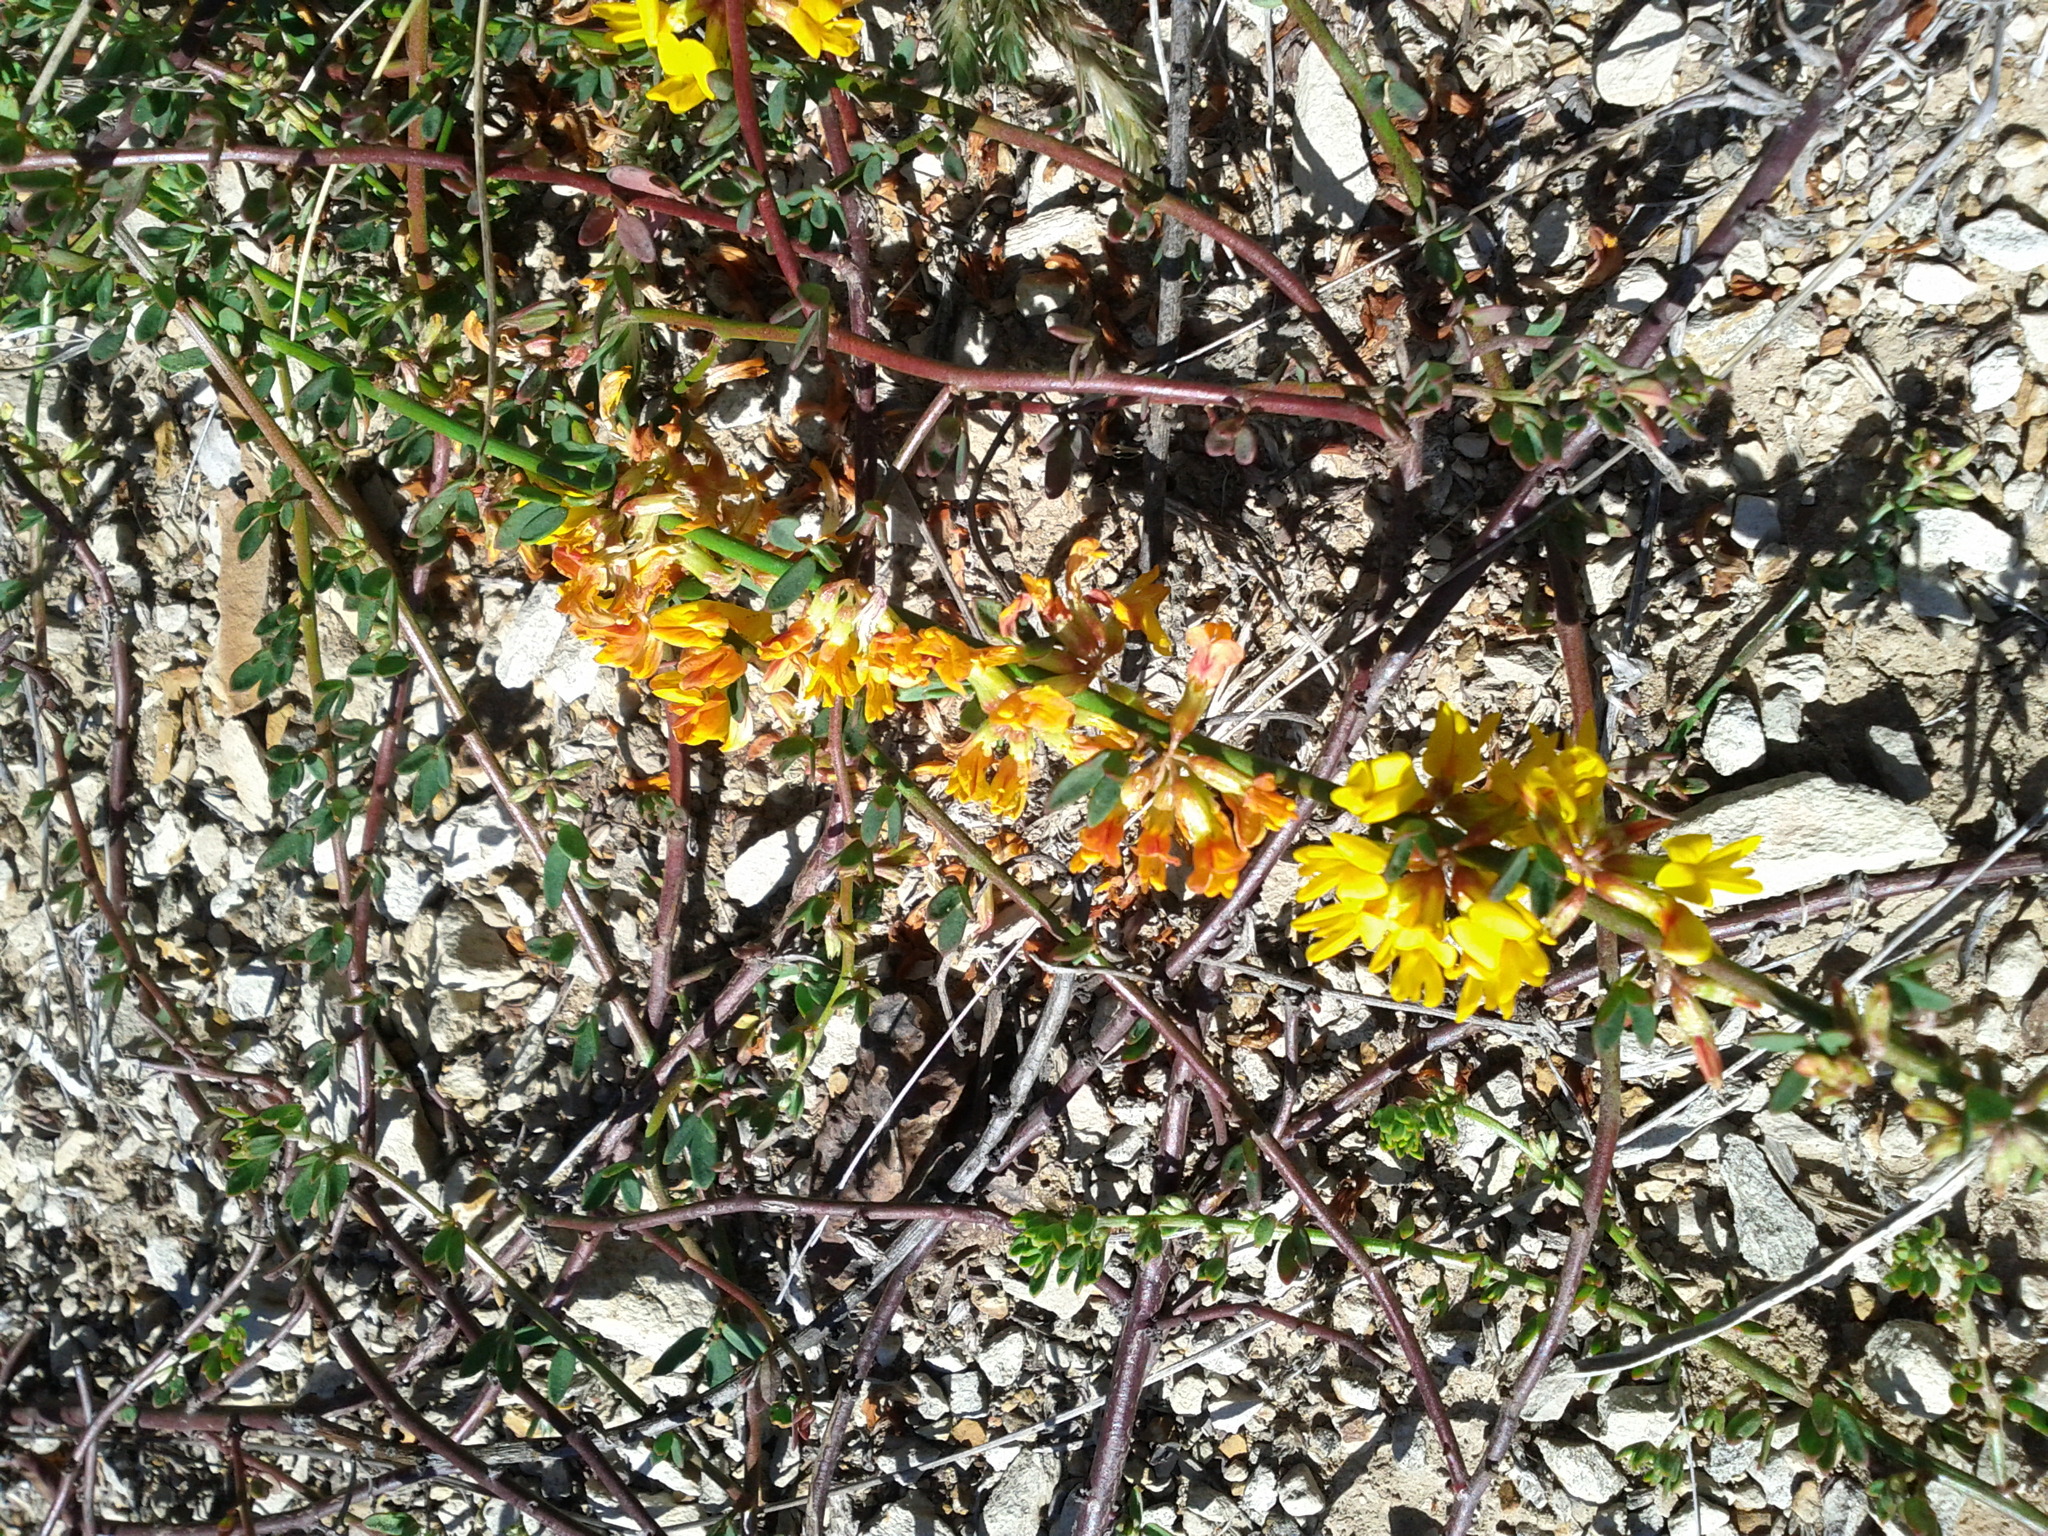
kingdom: Plantae
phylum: Tracheophyta
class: Magnoliopsida
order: Fabales
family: Fabaceae
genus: Acmispon
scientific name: Acmispon glaber
